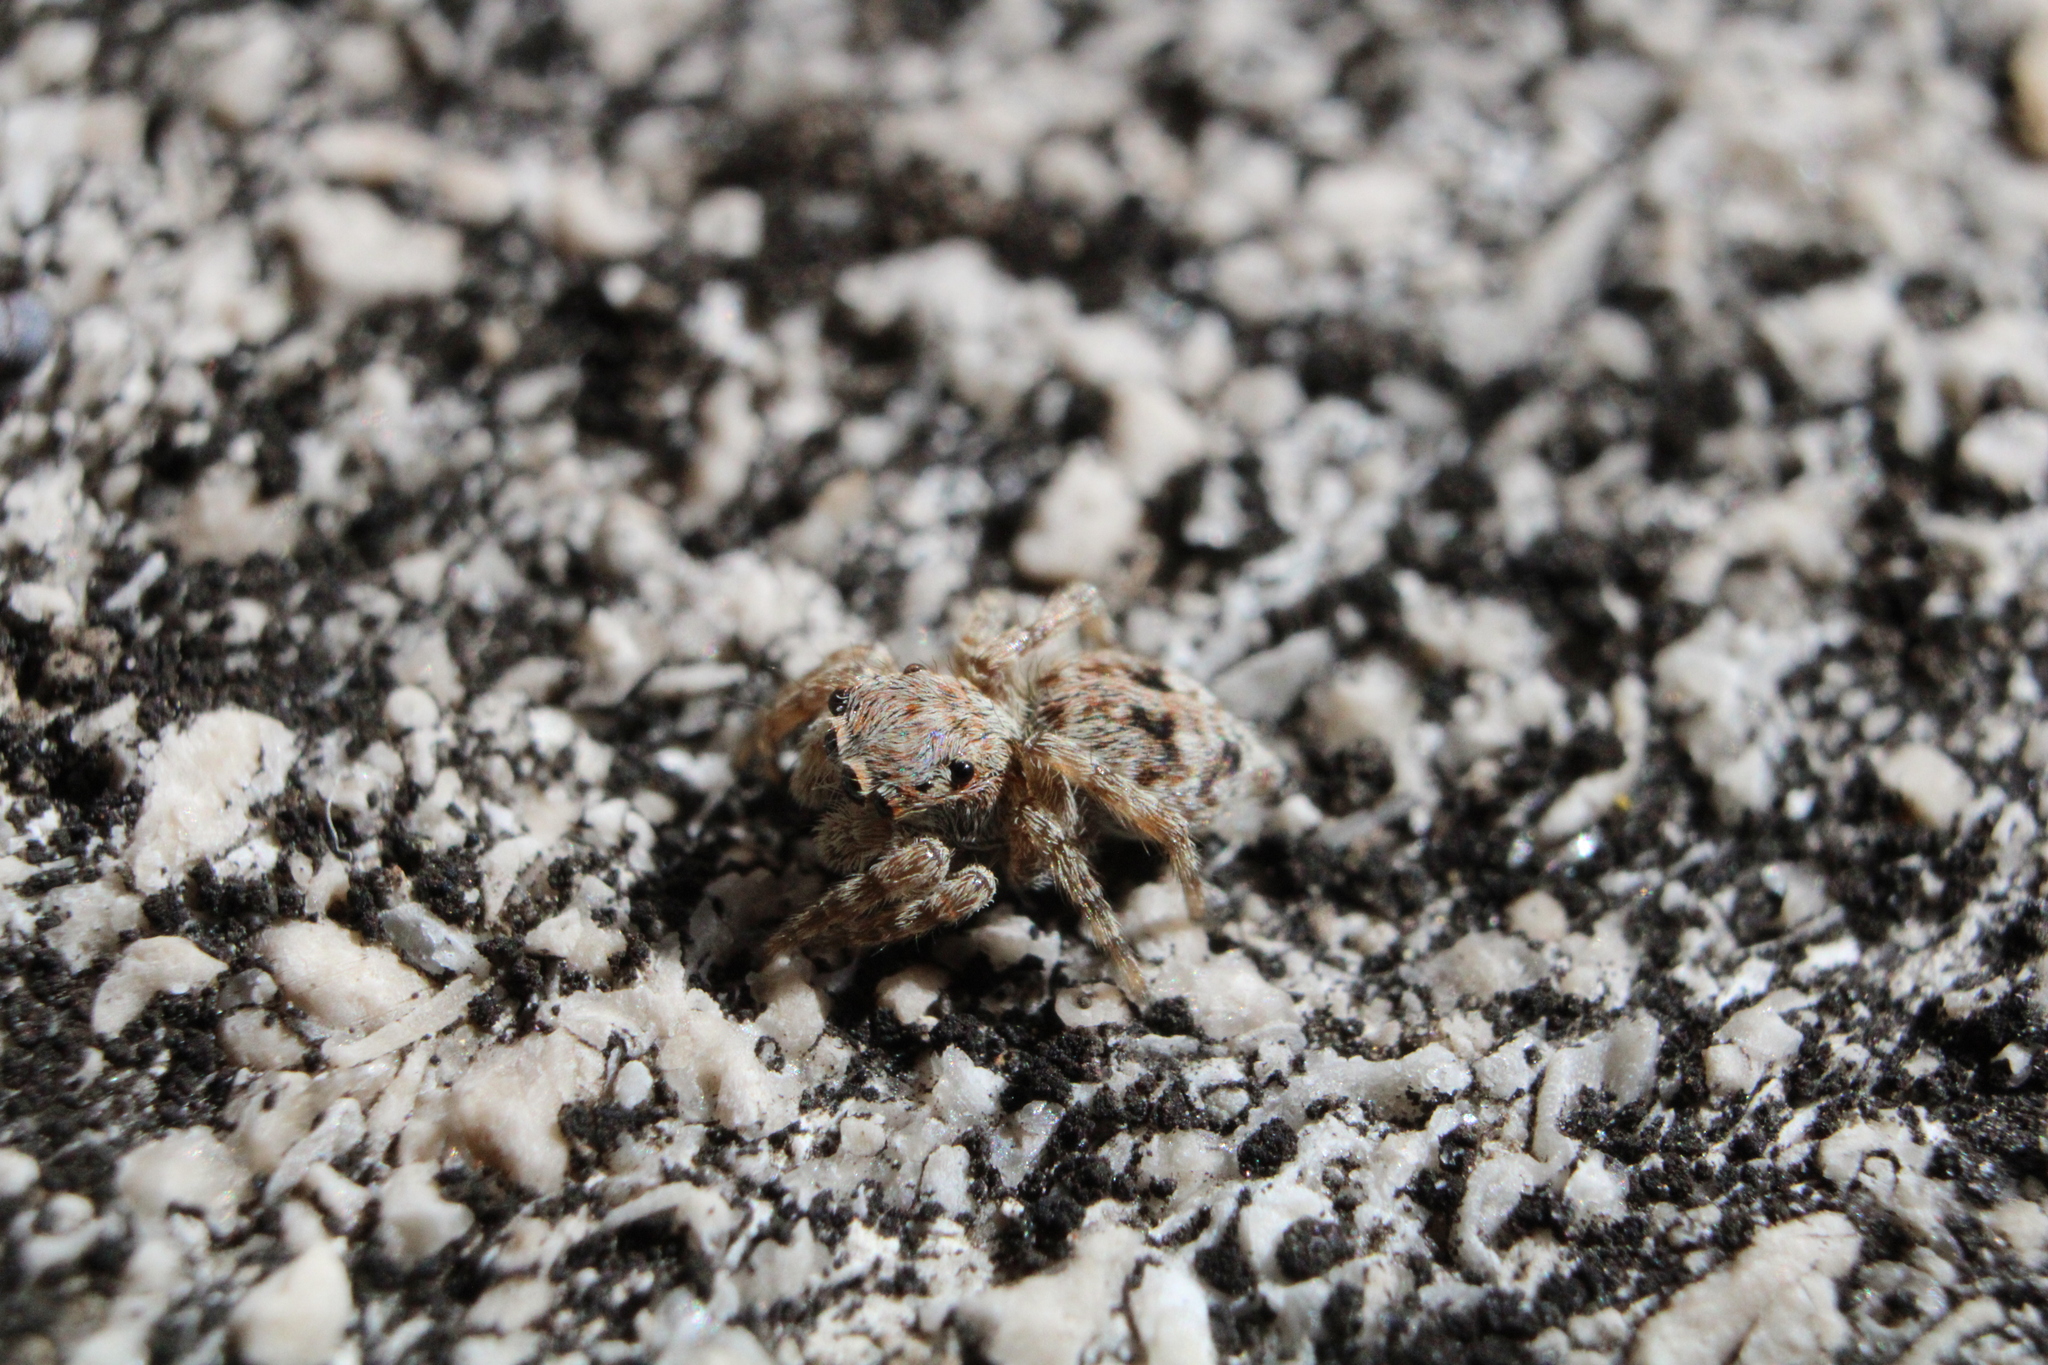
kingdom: Animalia
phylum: Arthropoda
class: Arachnida
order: Araneae
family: Salticidae
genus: Attulus
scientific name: Attulus fasciger
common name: Asiatic wall jumping spider
